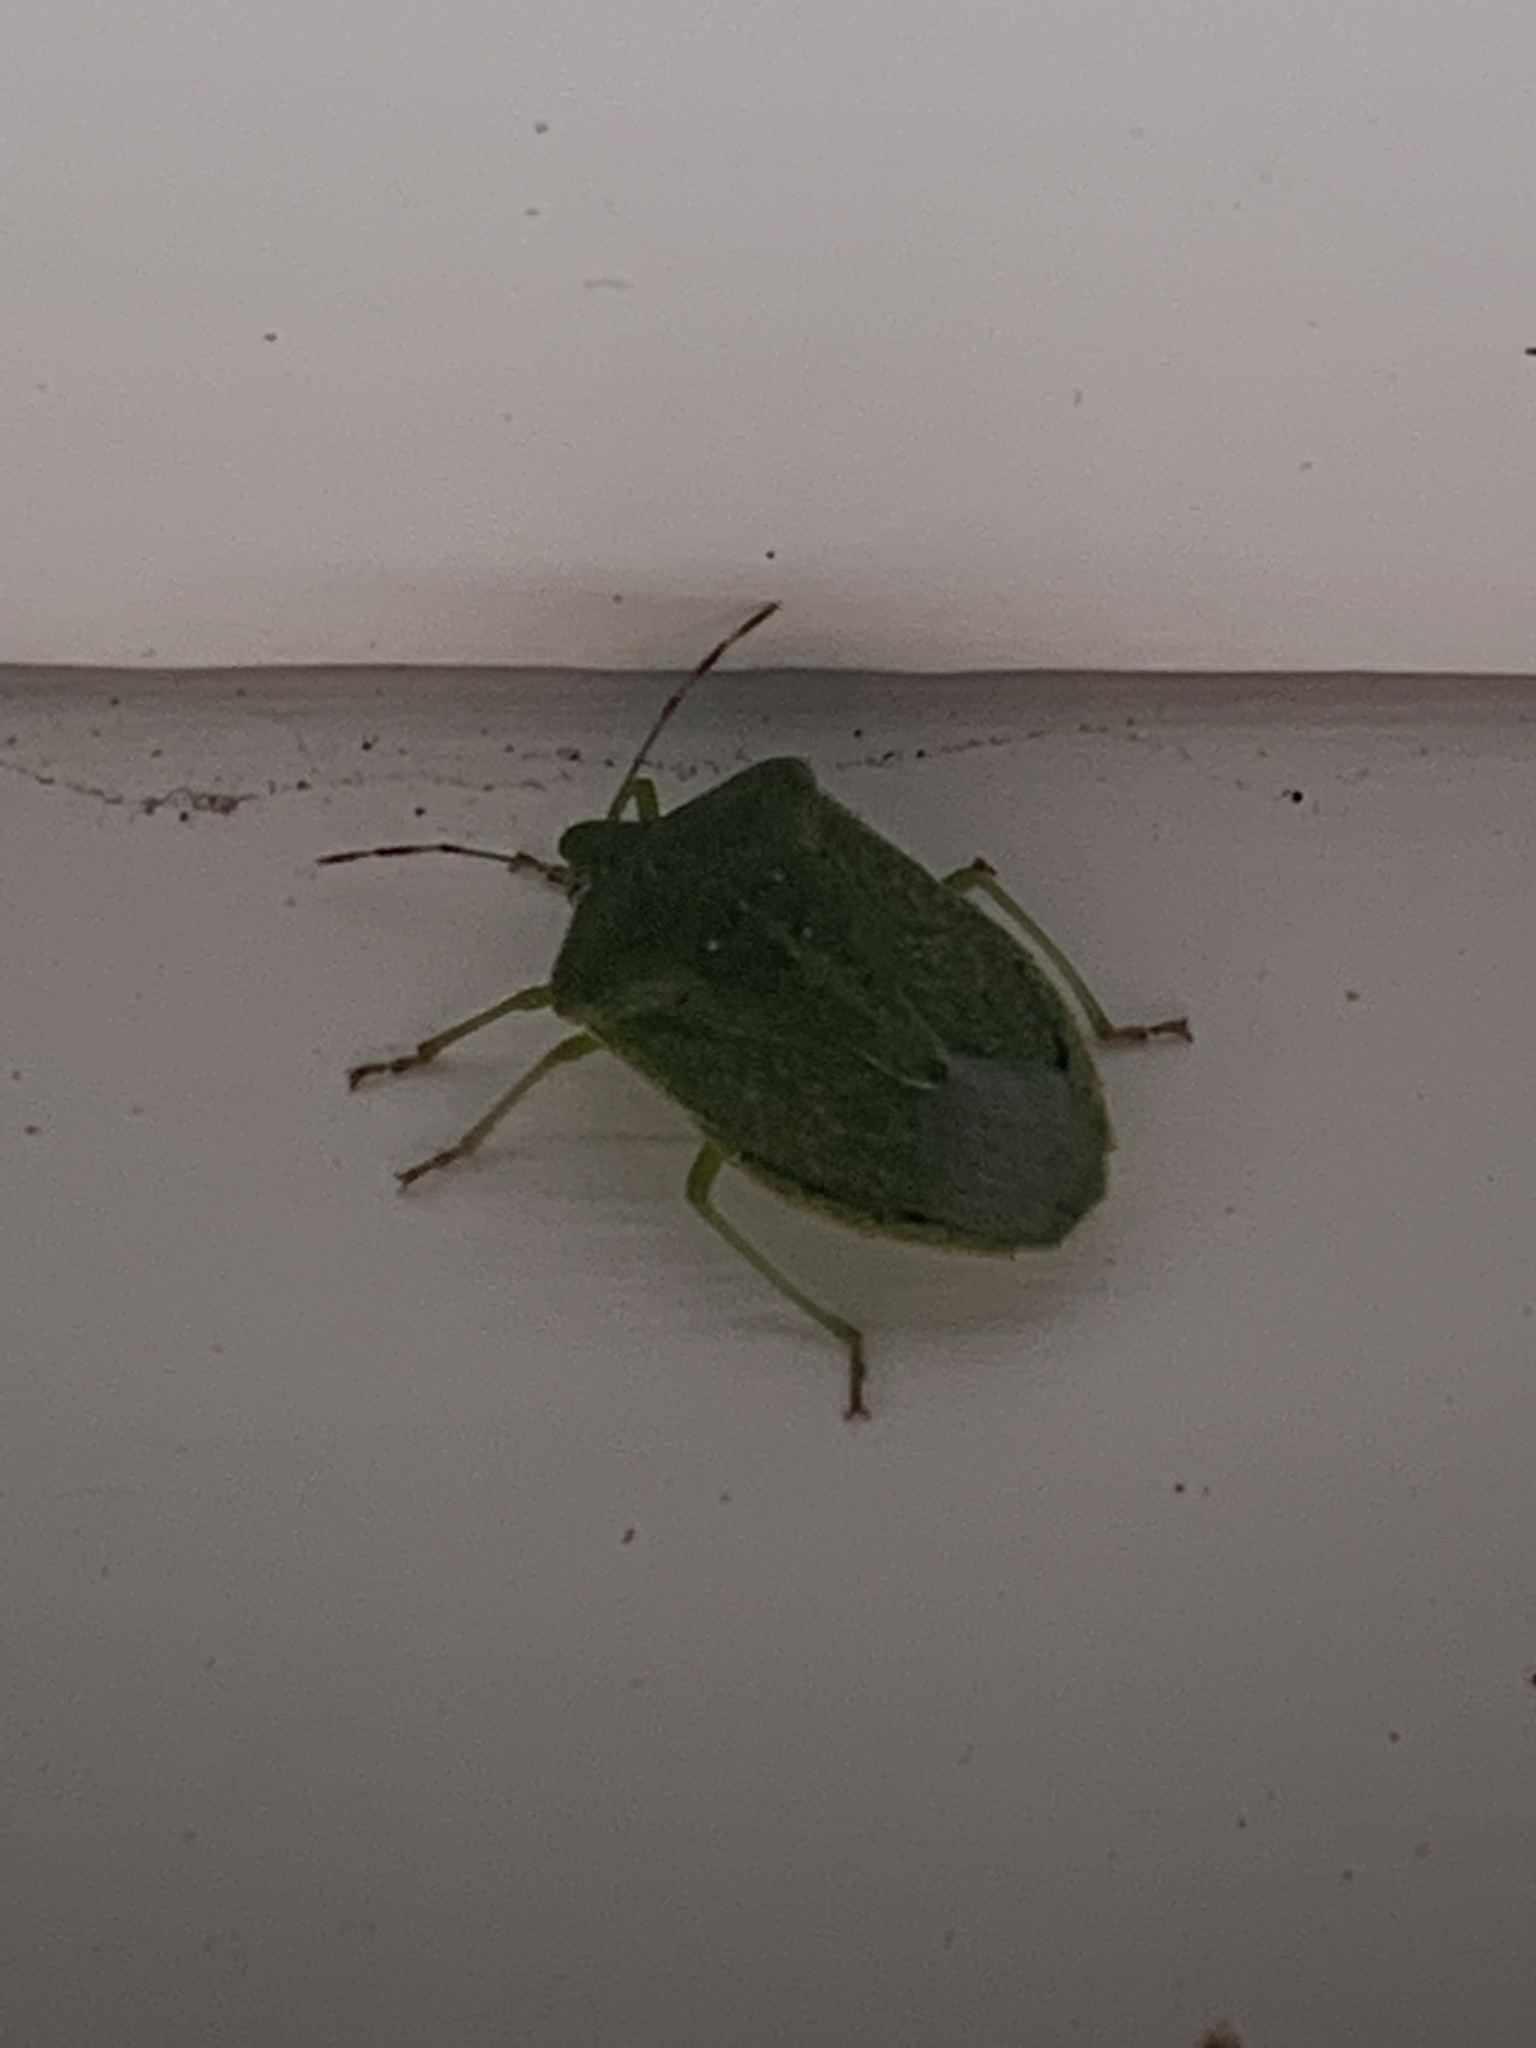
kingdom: Animalia
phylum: Arthropoda
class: Insecta
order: Hemiptera
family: Pentatomidae
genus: Nezara
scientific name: Nezara viridula
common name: Southern green stink bug
